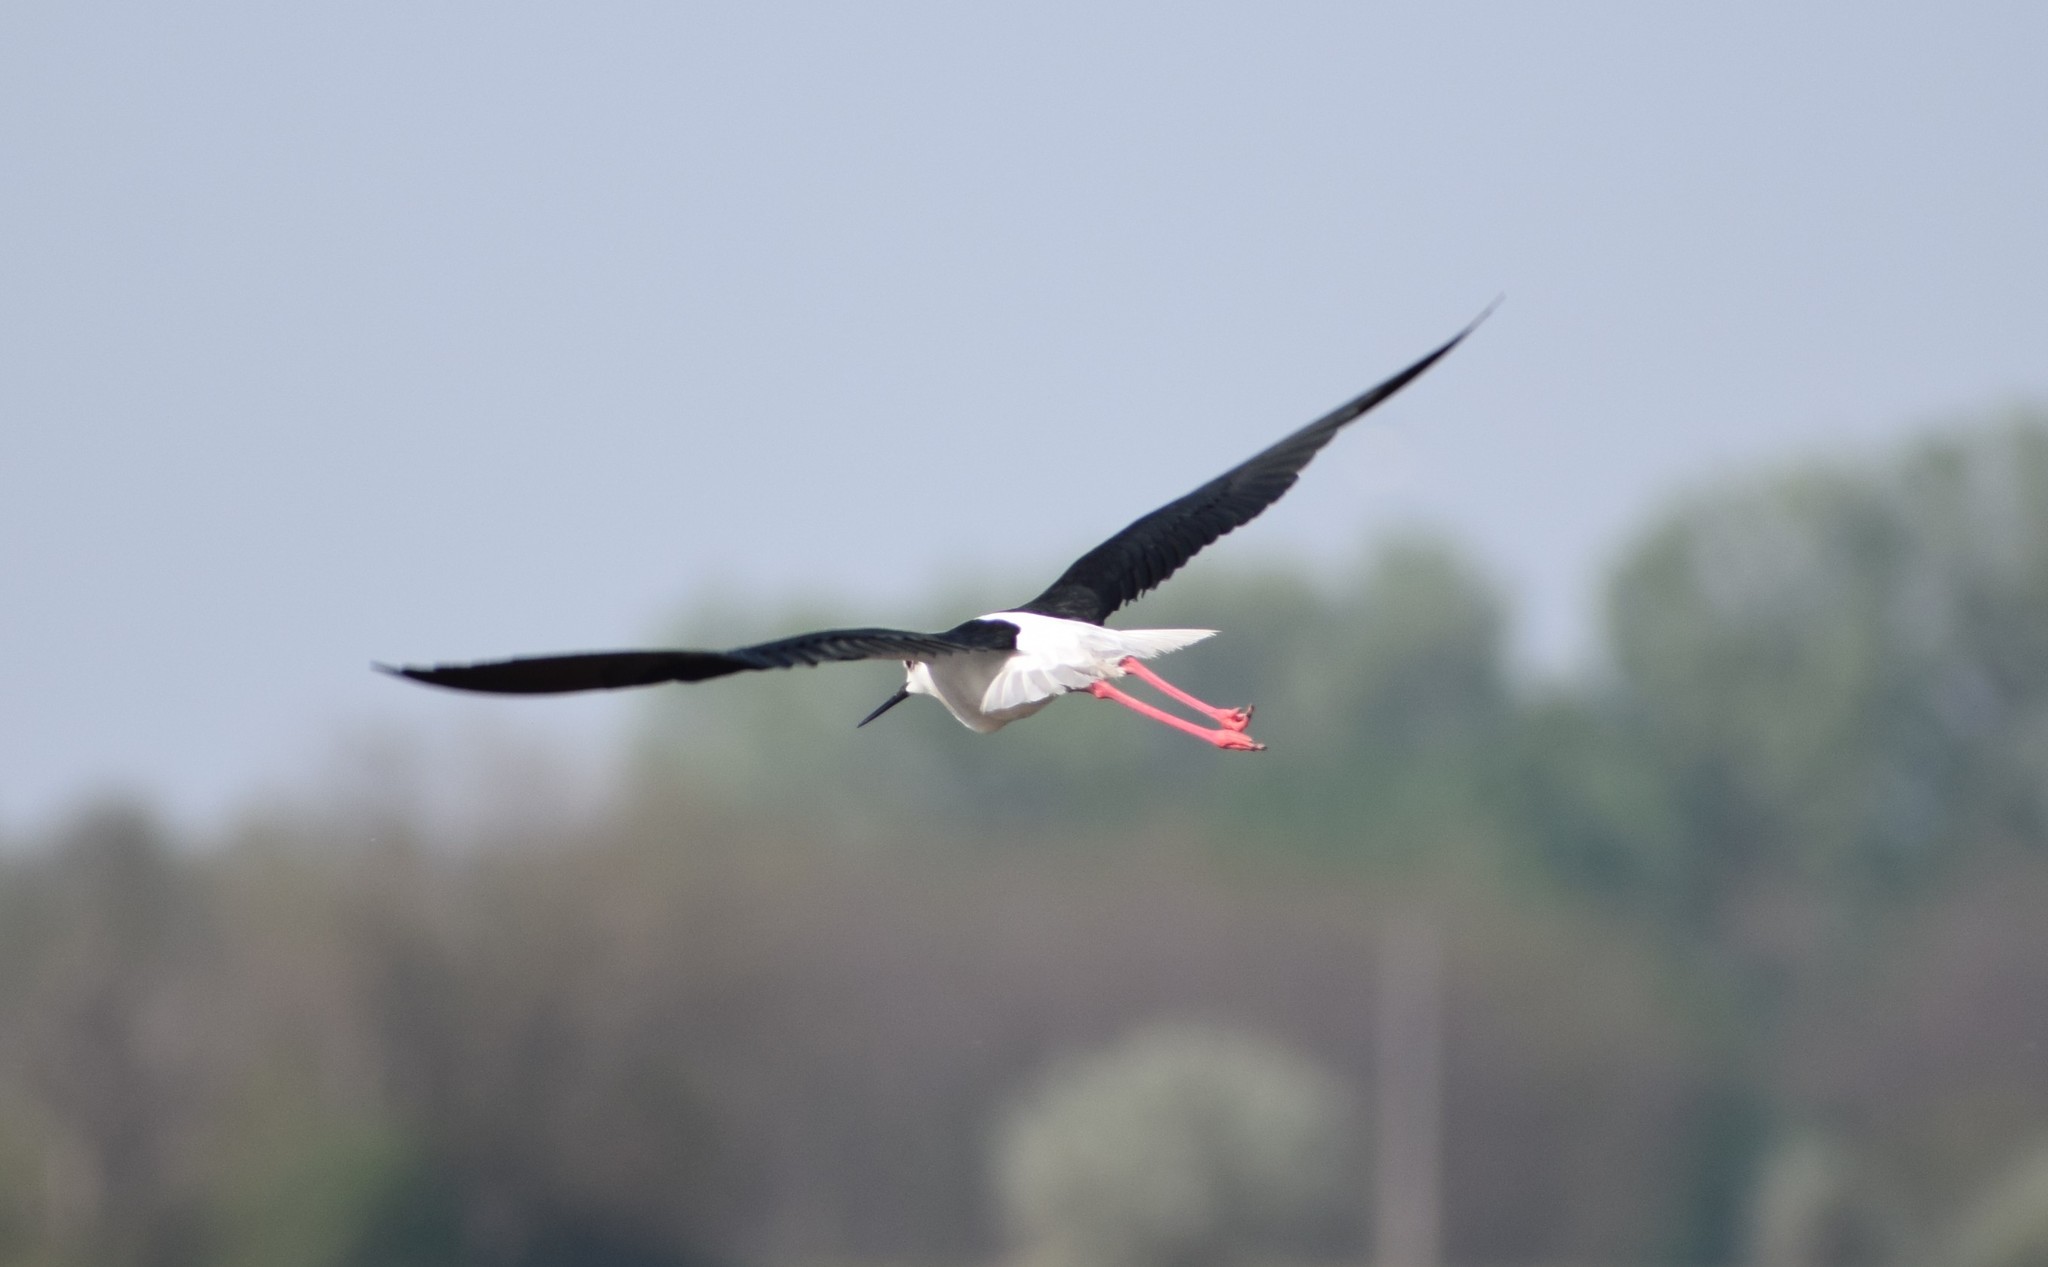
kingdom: Animalia
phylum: Chordata
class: Aves
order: Charadriiformes
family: Recurvirostridae
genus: Himantopus
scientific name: Himantopus himantopus
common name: Black-winged stilt
